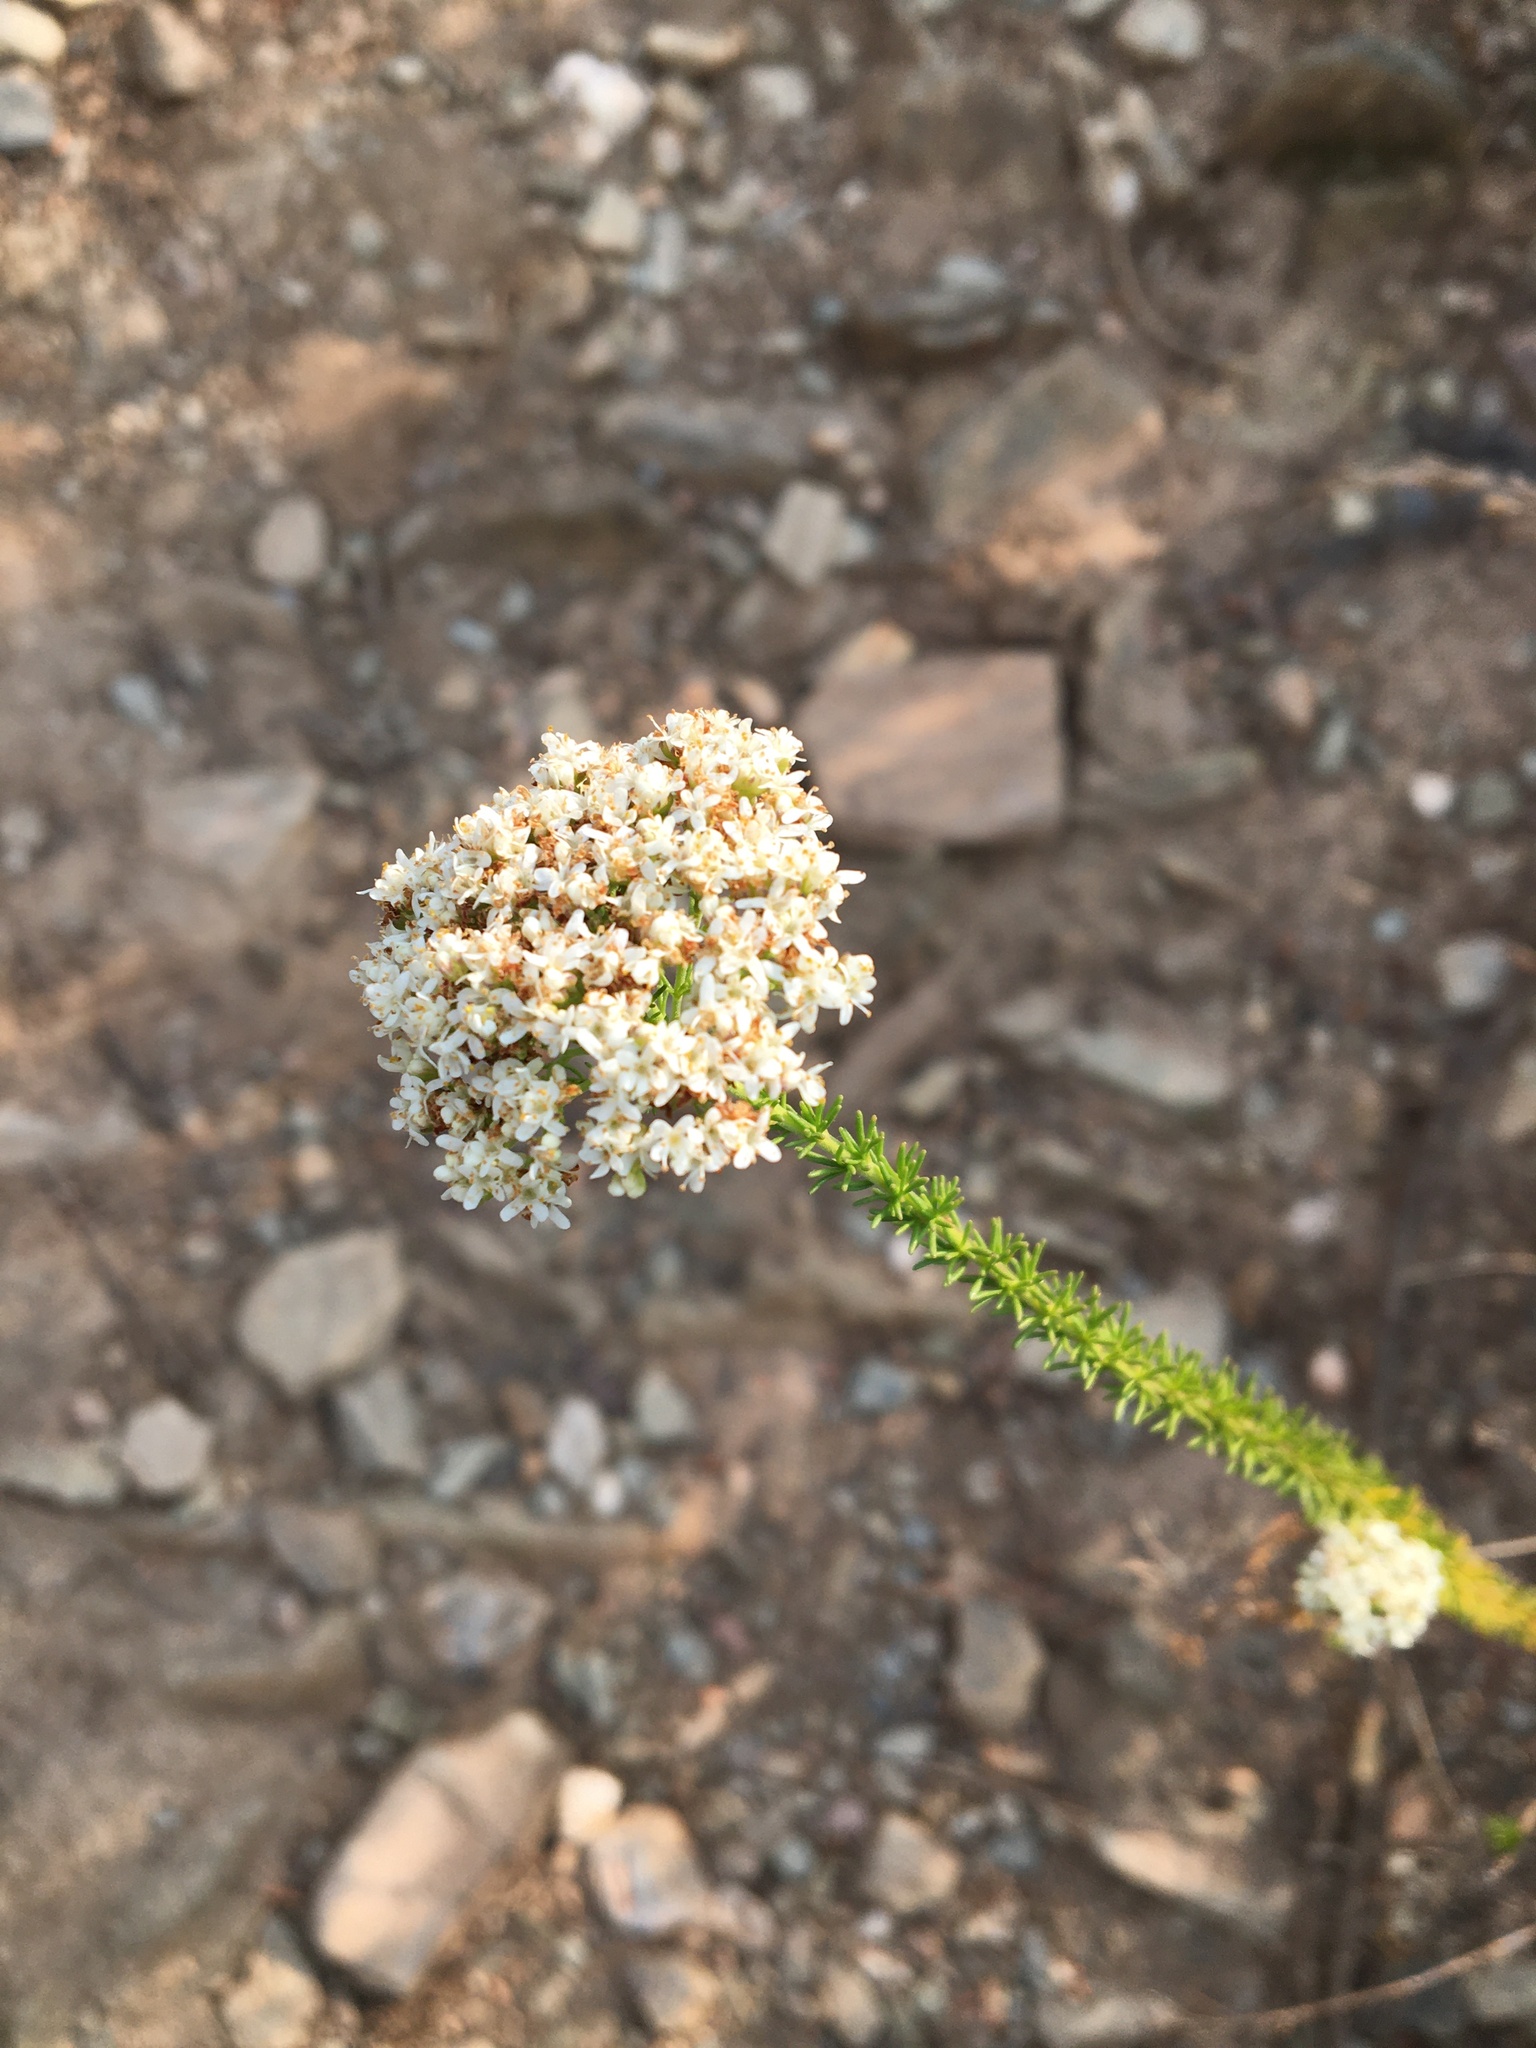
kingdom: Plantae
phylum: Tracheophyta
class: Magnoliopsida
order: Lamiales
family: Scrophulariaceae
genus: Selago
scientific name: Selago dolosa
